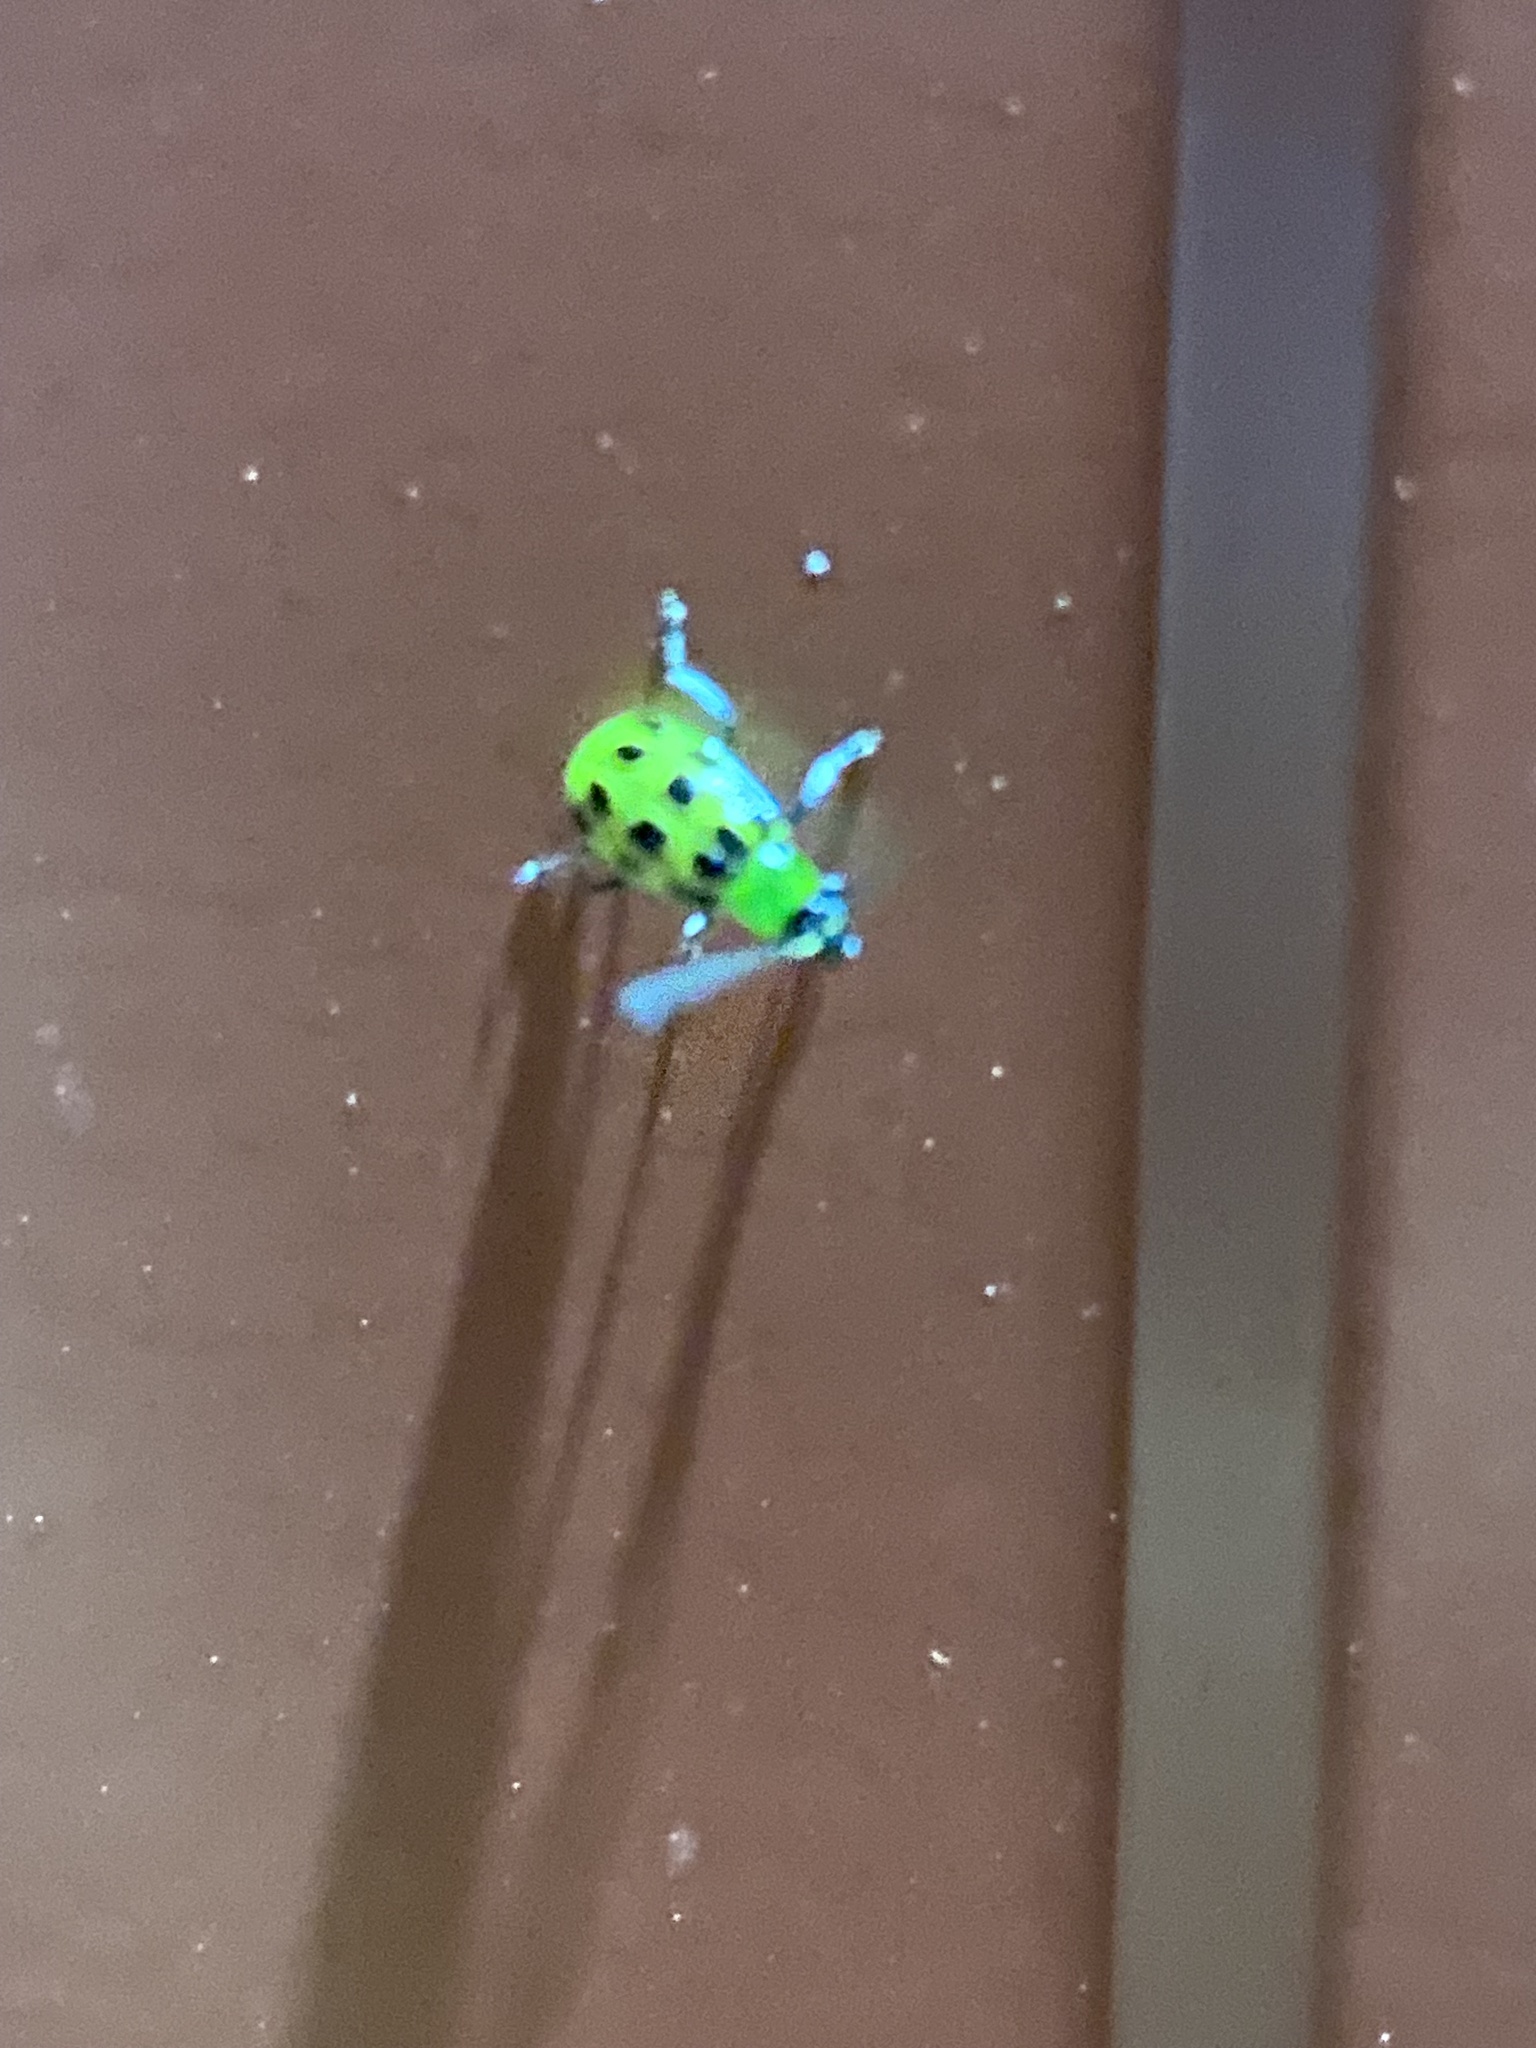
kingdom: Animalia
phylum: Arthropoda
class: Insecta
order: Coleoptera
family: Chrysomelidae
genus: Diabrotica
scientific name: Diabrotica undecimpunctata
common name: Spotted cucumber beetle
